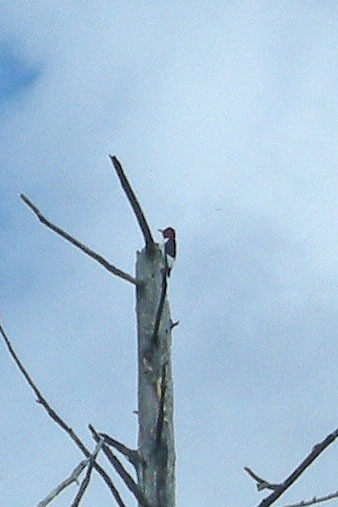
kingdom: Animalia
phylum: Chordata
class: Aves
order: Piciformes
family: Picidae
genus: Melanerpes
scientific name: Melanerpes erythrocephalus
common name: Red-headed woodpecker
